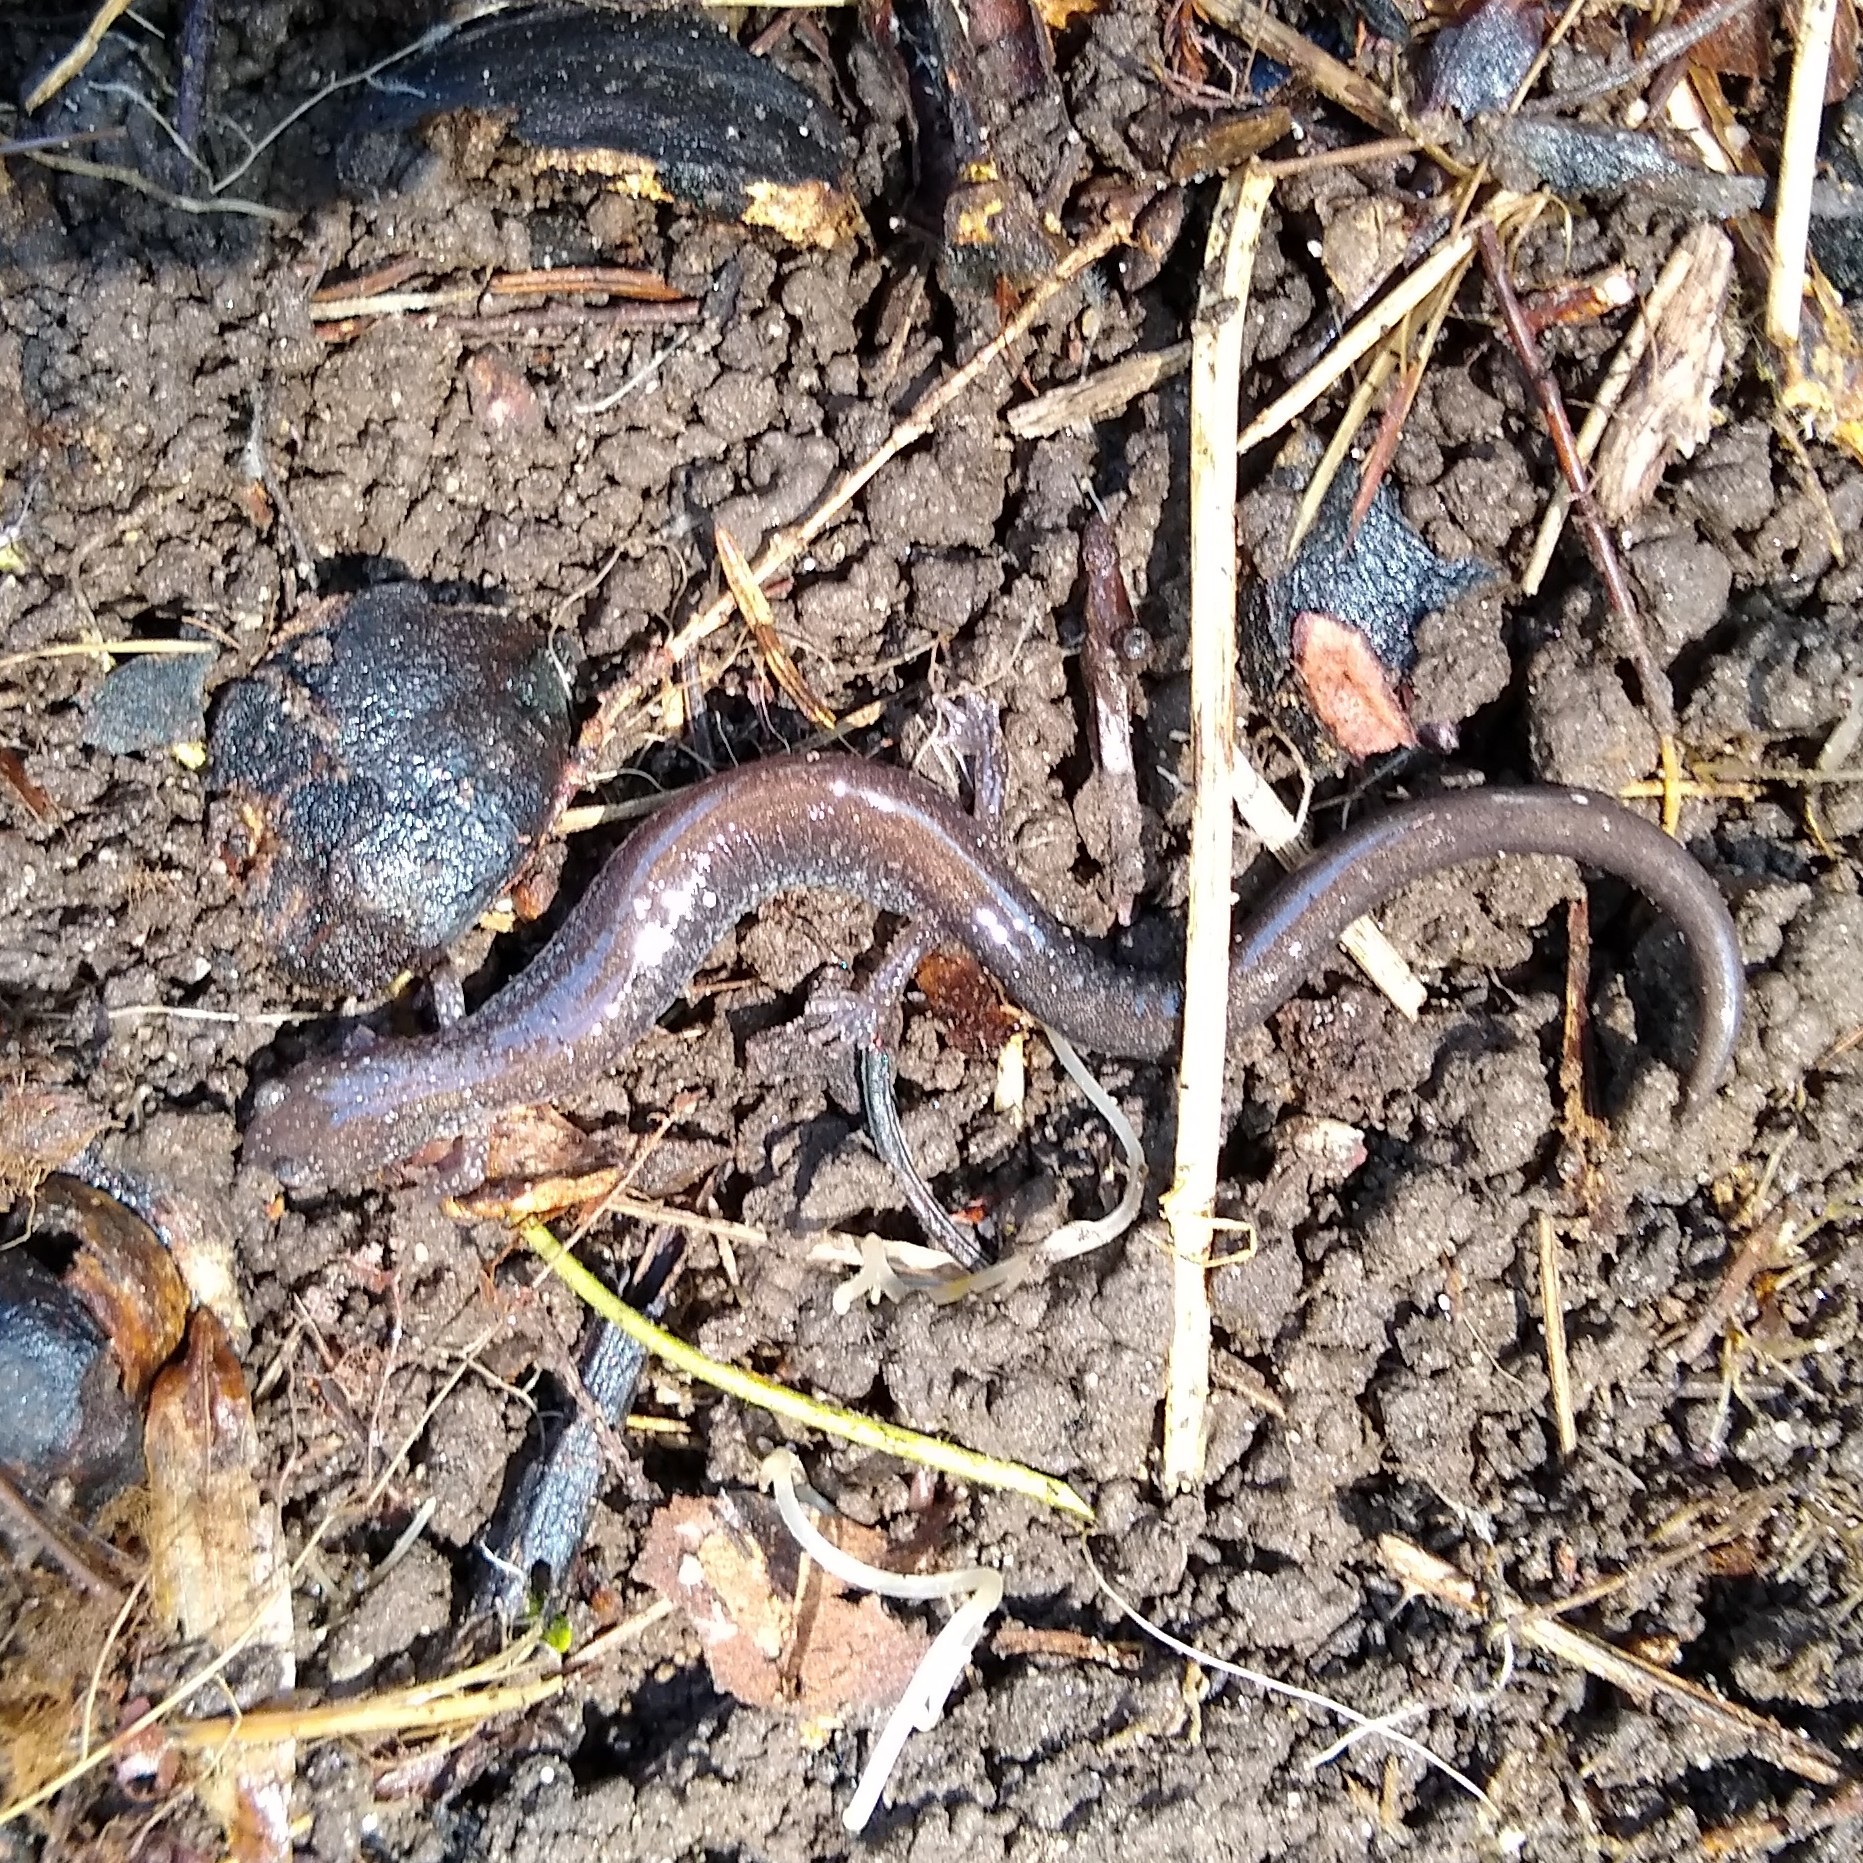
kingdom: Animalia
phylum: Chordata
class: Amphibia
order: Caudata
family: Plethodontidae
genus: Plethodon
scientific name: Plethodon cinereus
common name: Redback salamander
